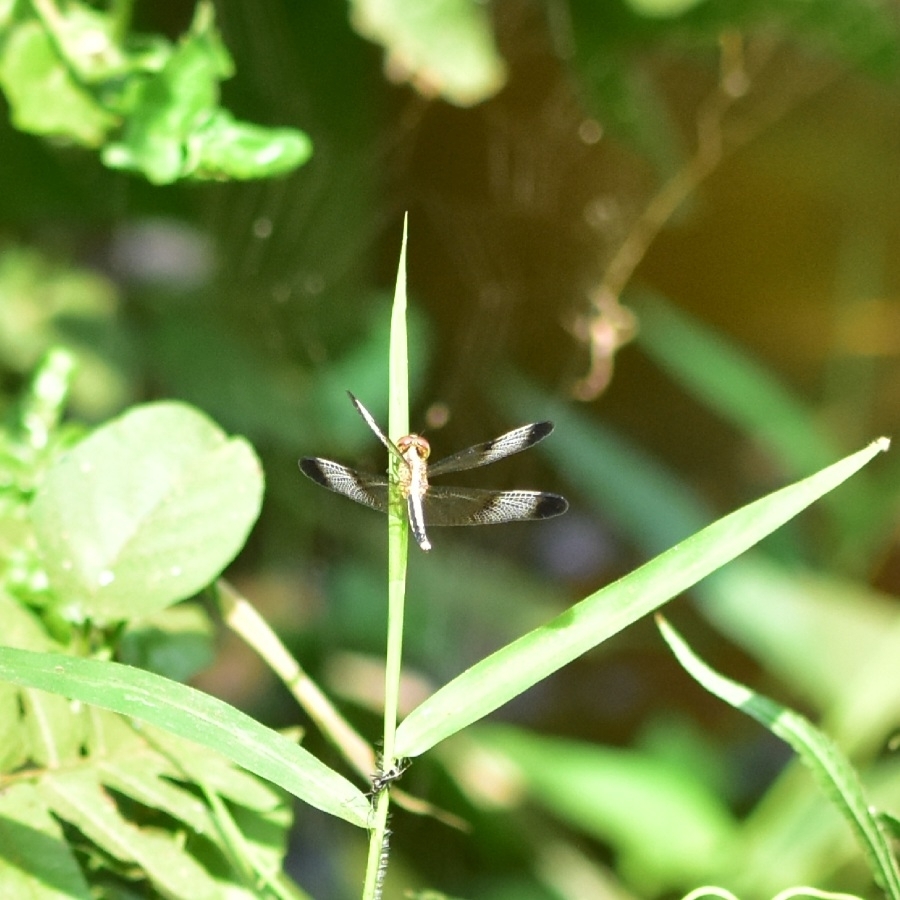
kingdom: Animalia
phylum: Arthropoda
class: Insecta
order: Odonata
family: Libellulidae
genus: Neurothemis
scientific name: Neurothemis tullia
